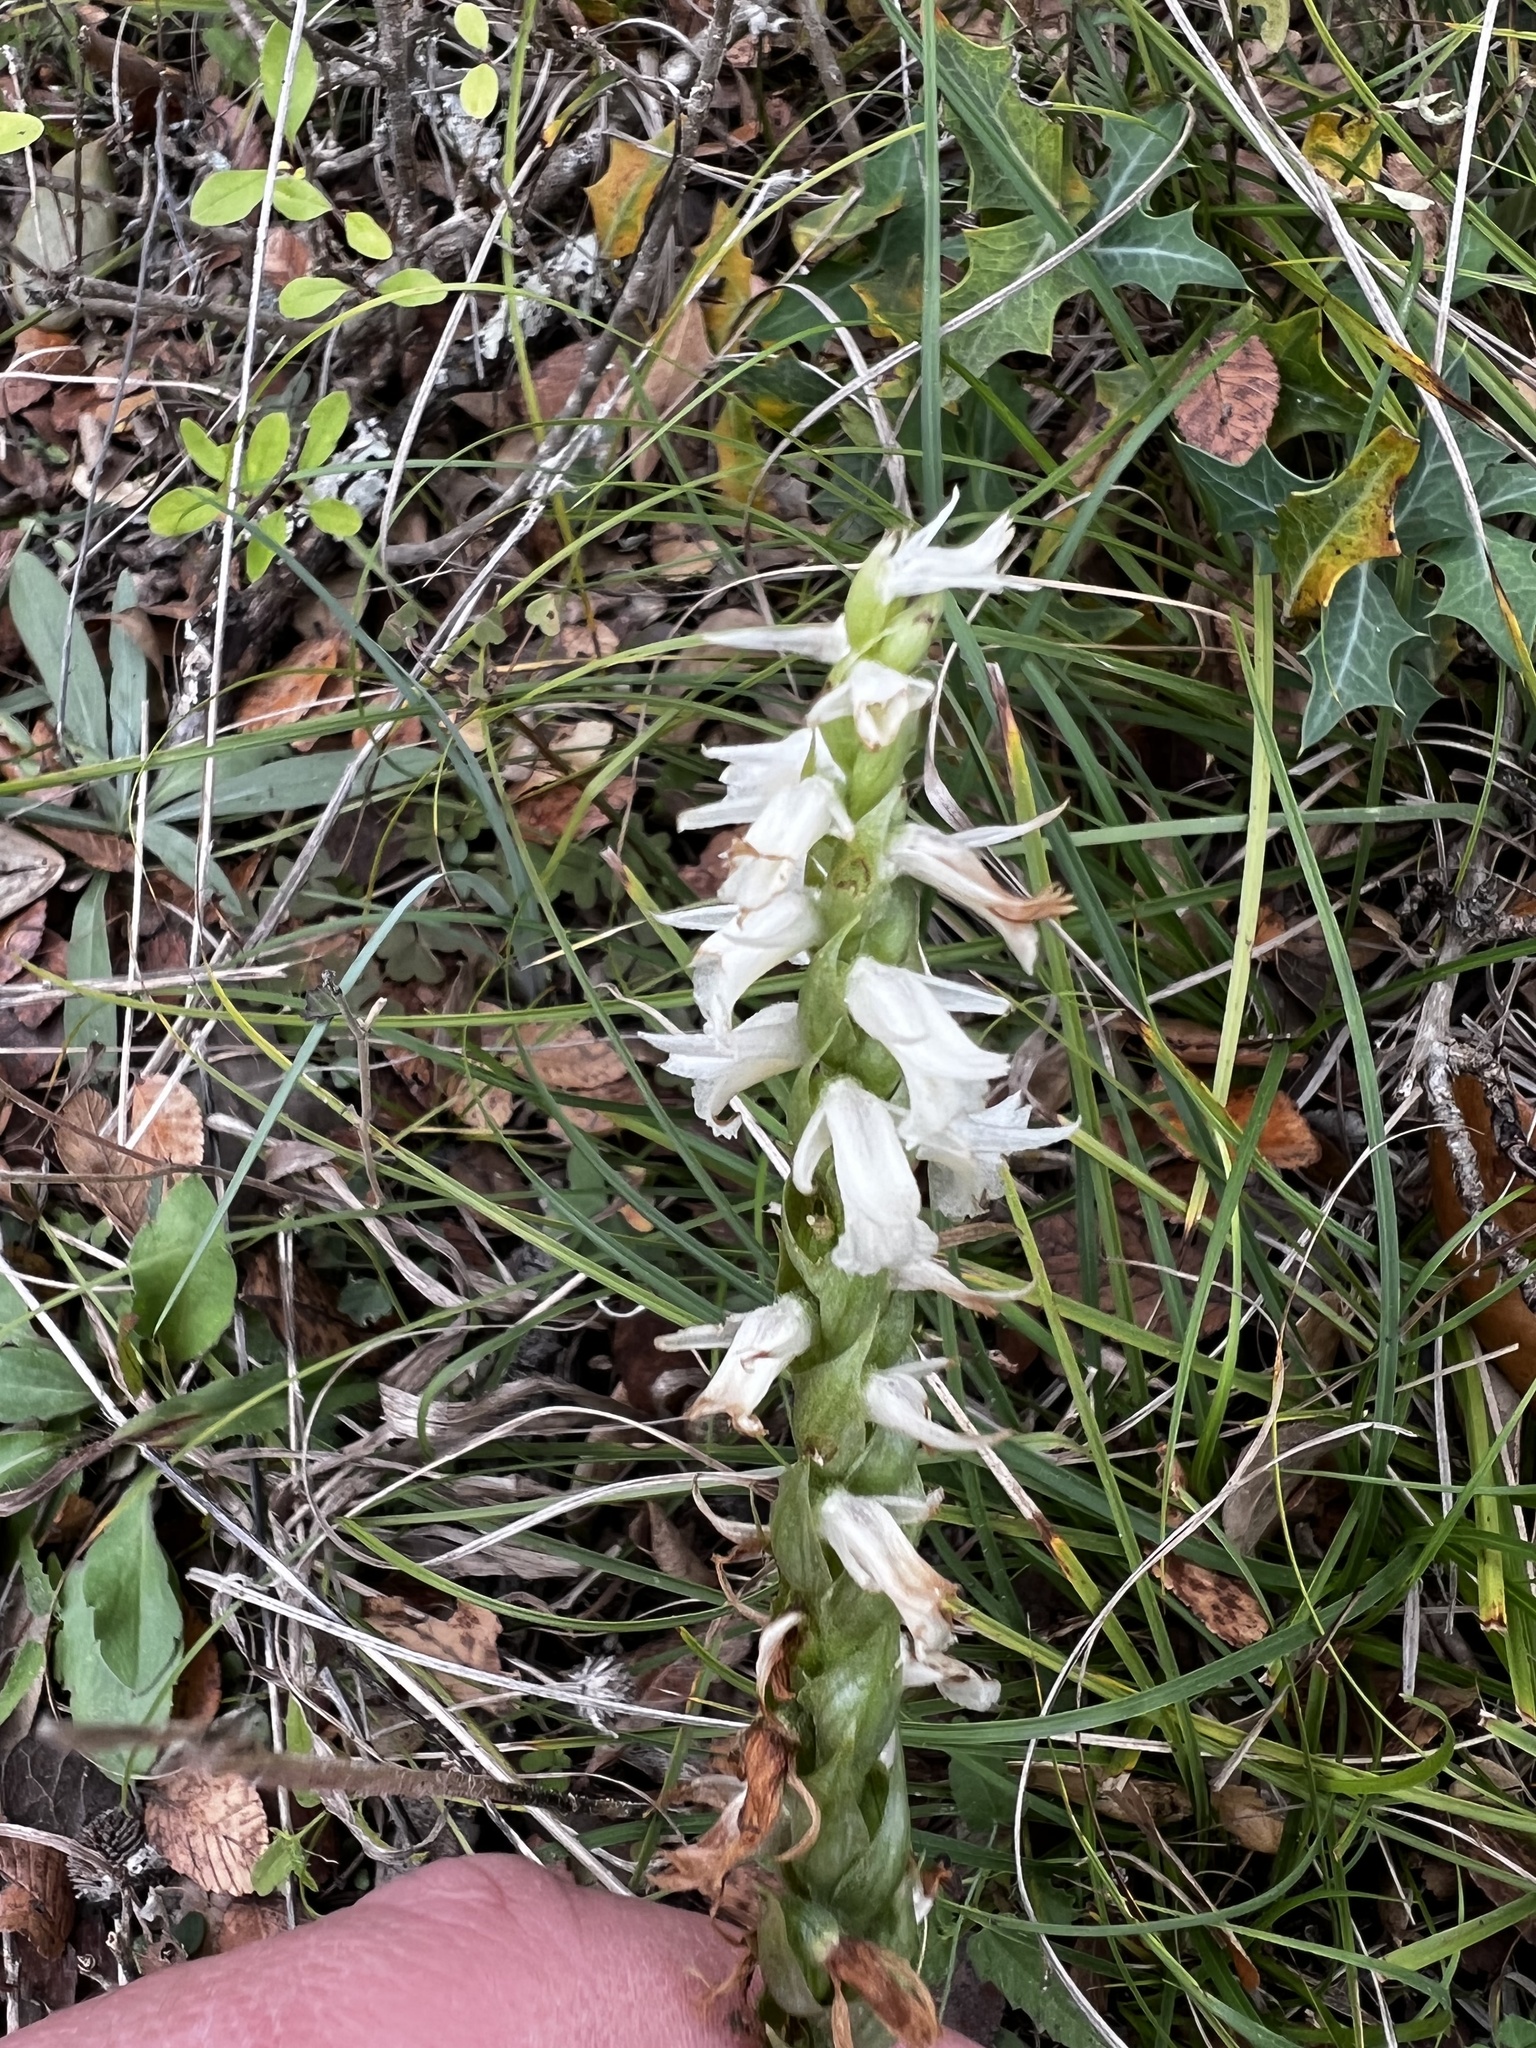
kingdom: Plantae
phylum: Tracheophyta
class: Liliopsida
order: Asparagales
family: Orchidaceae
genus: Spiranthes
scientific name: Spiranthes magnicamporum
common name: Great plains ladies'-tresses
